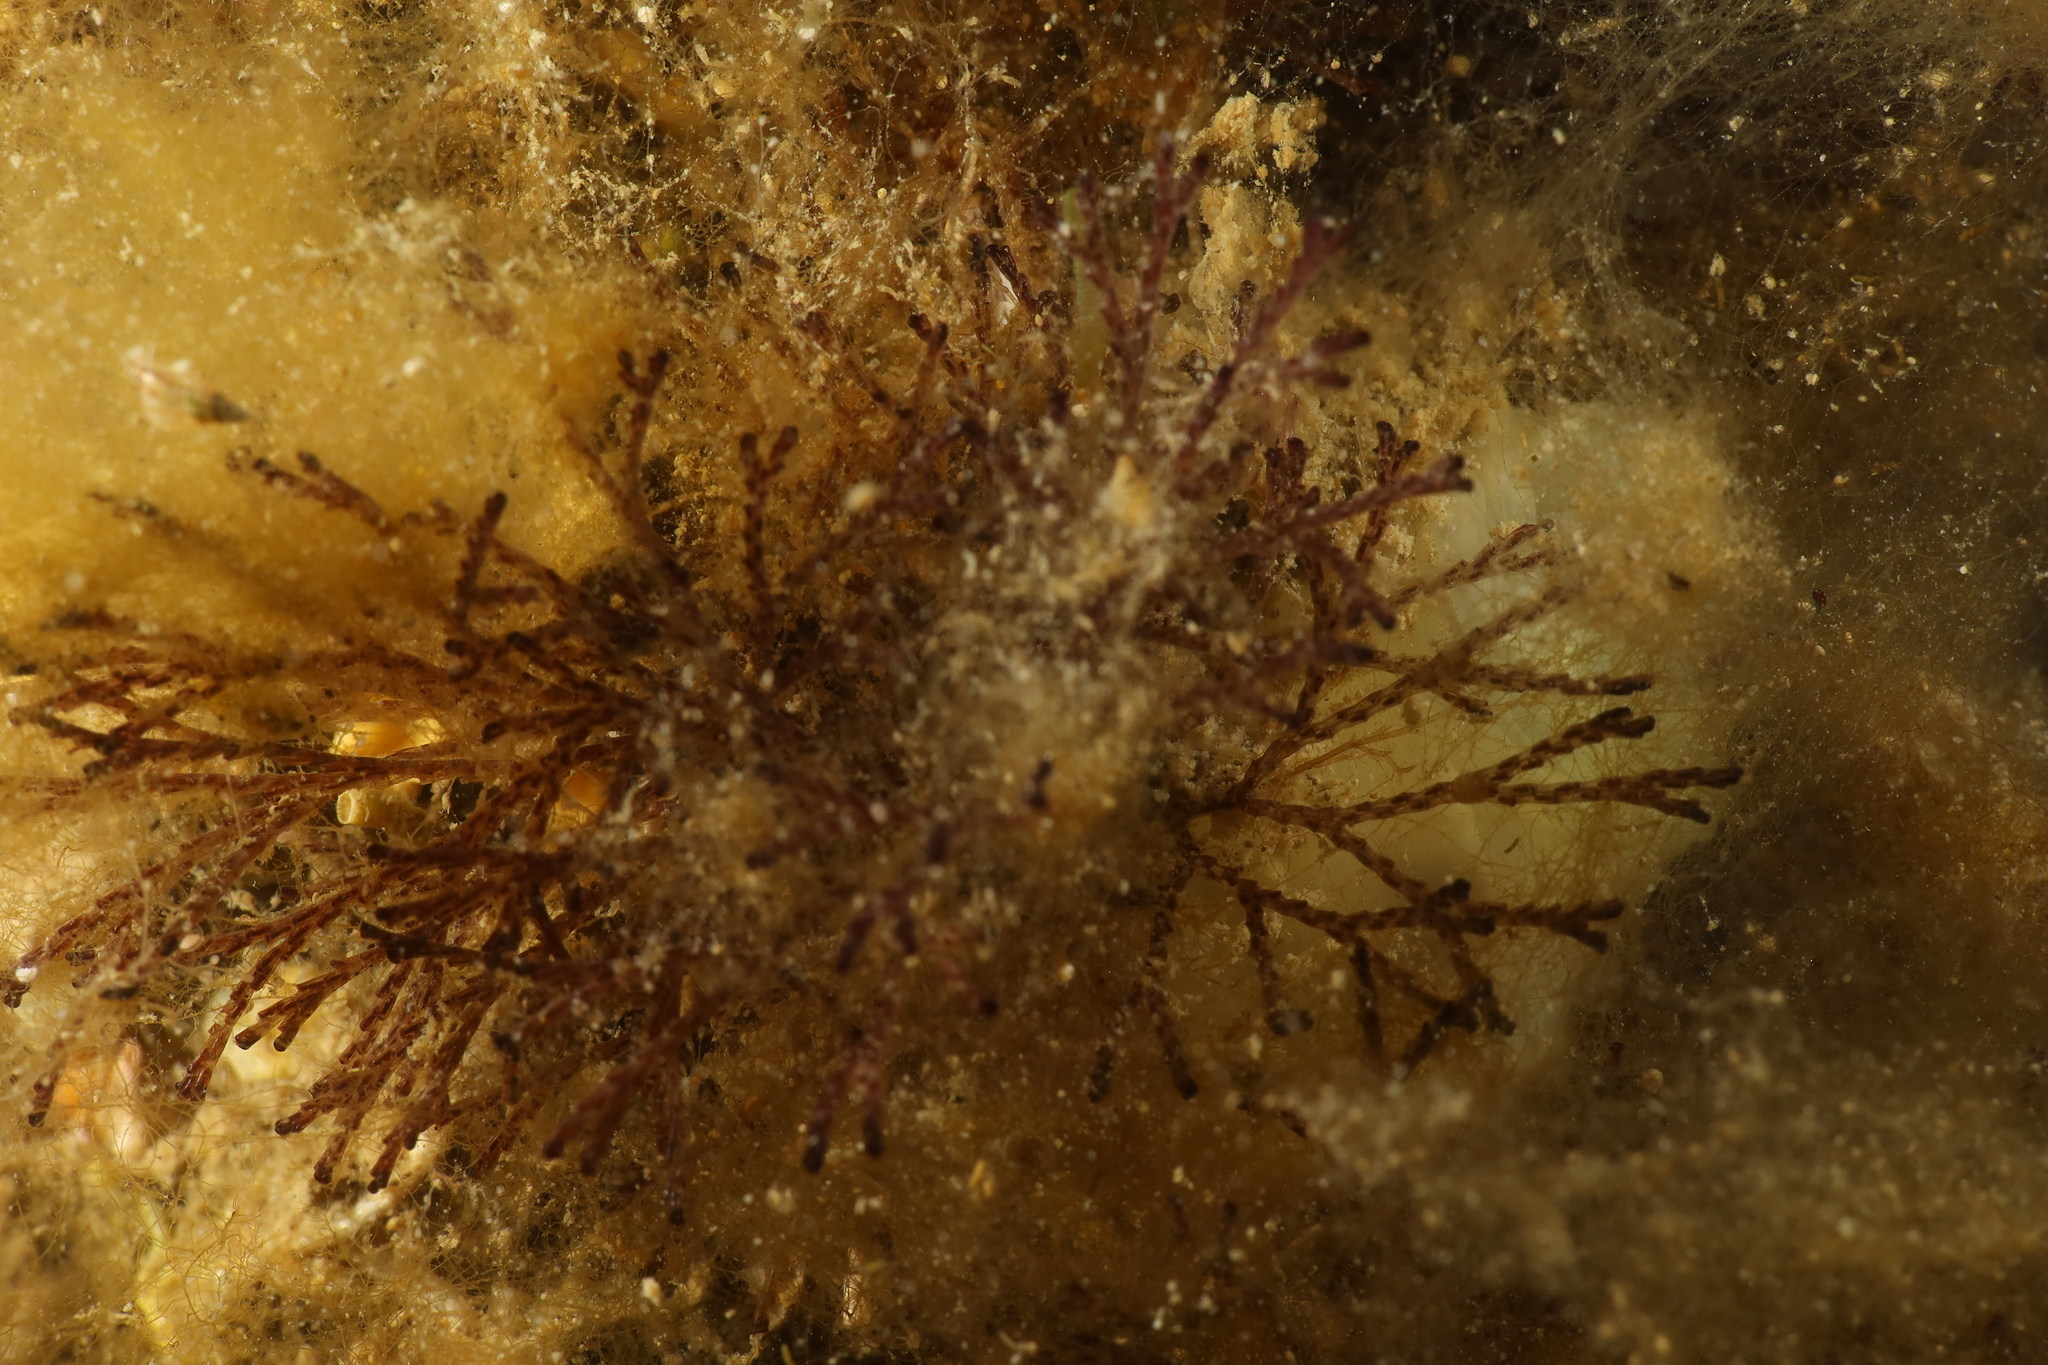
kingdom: Animalia
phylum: Bryozoa
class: Gymnolaemata
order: Cheilostomatida
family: Bugulidae
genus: Bugula
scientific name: Bugula neritina
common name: Brown bryozoan
